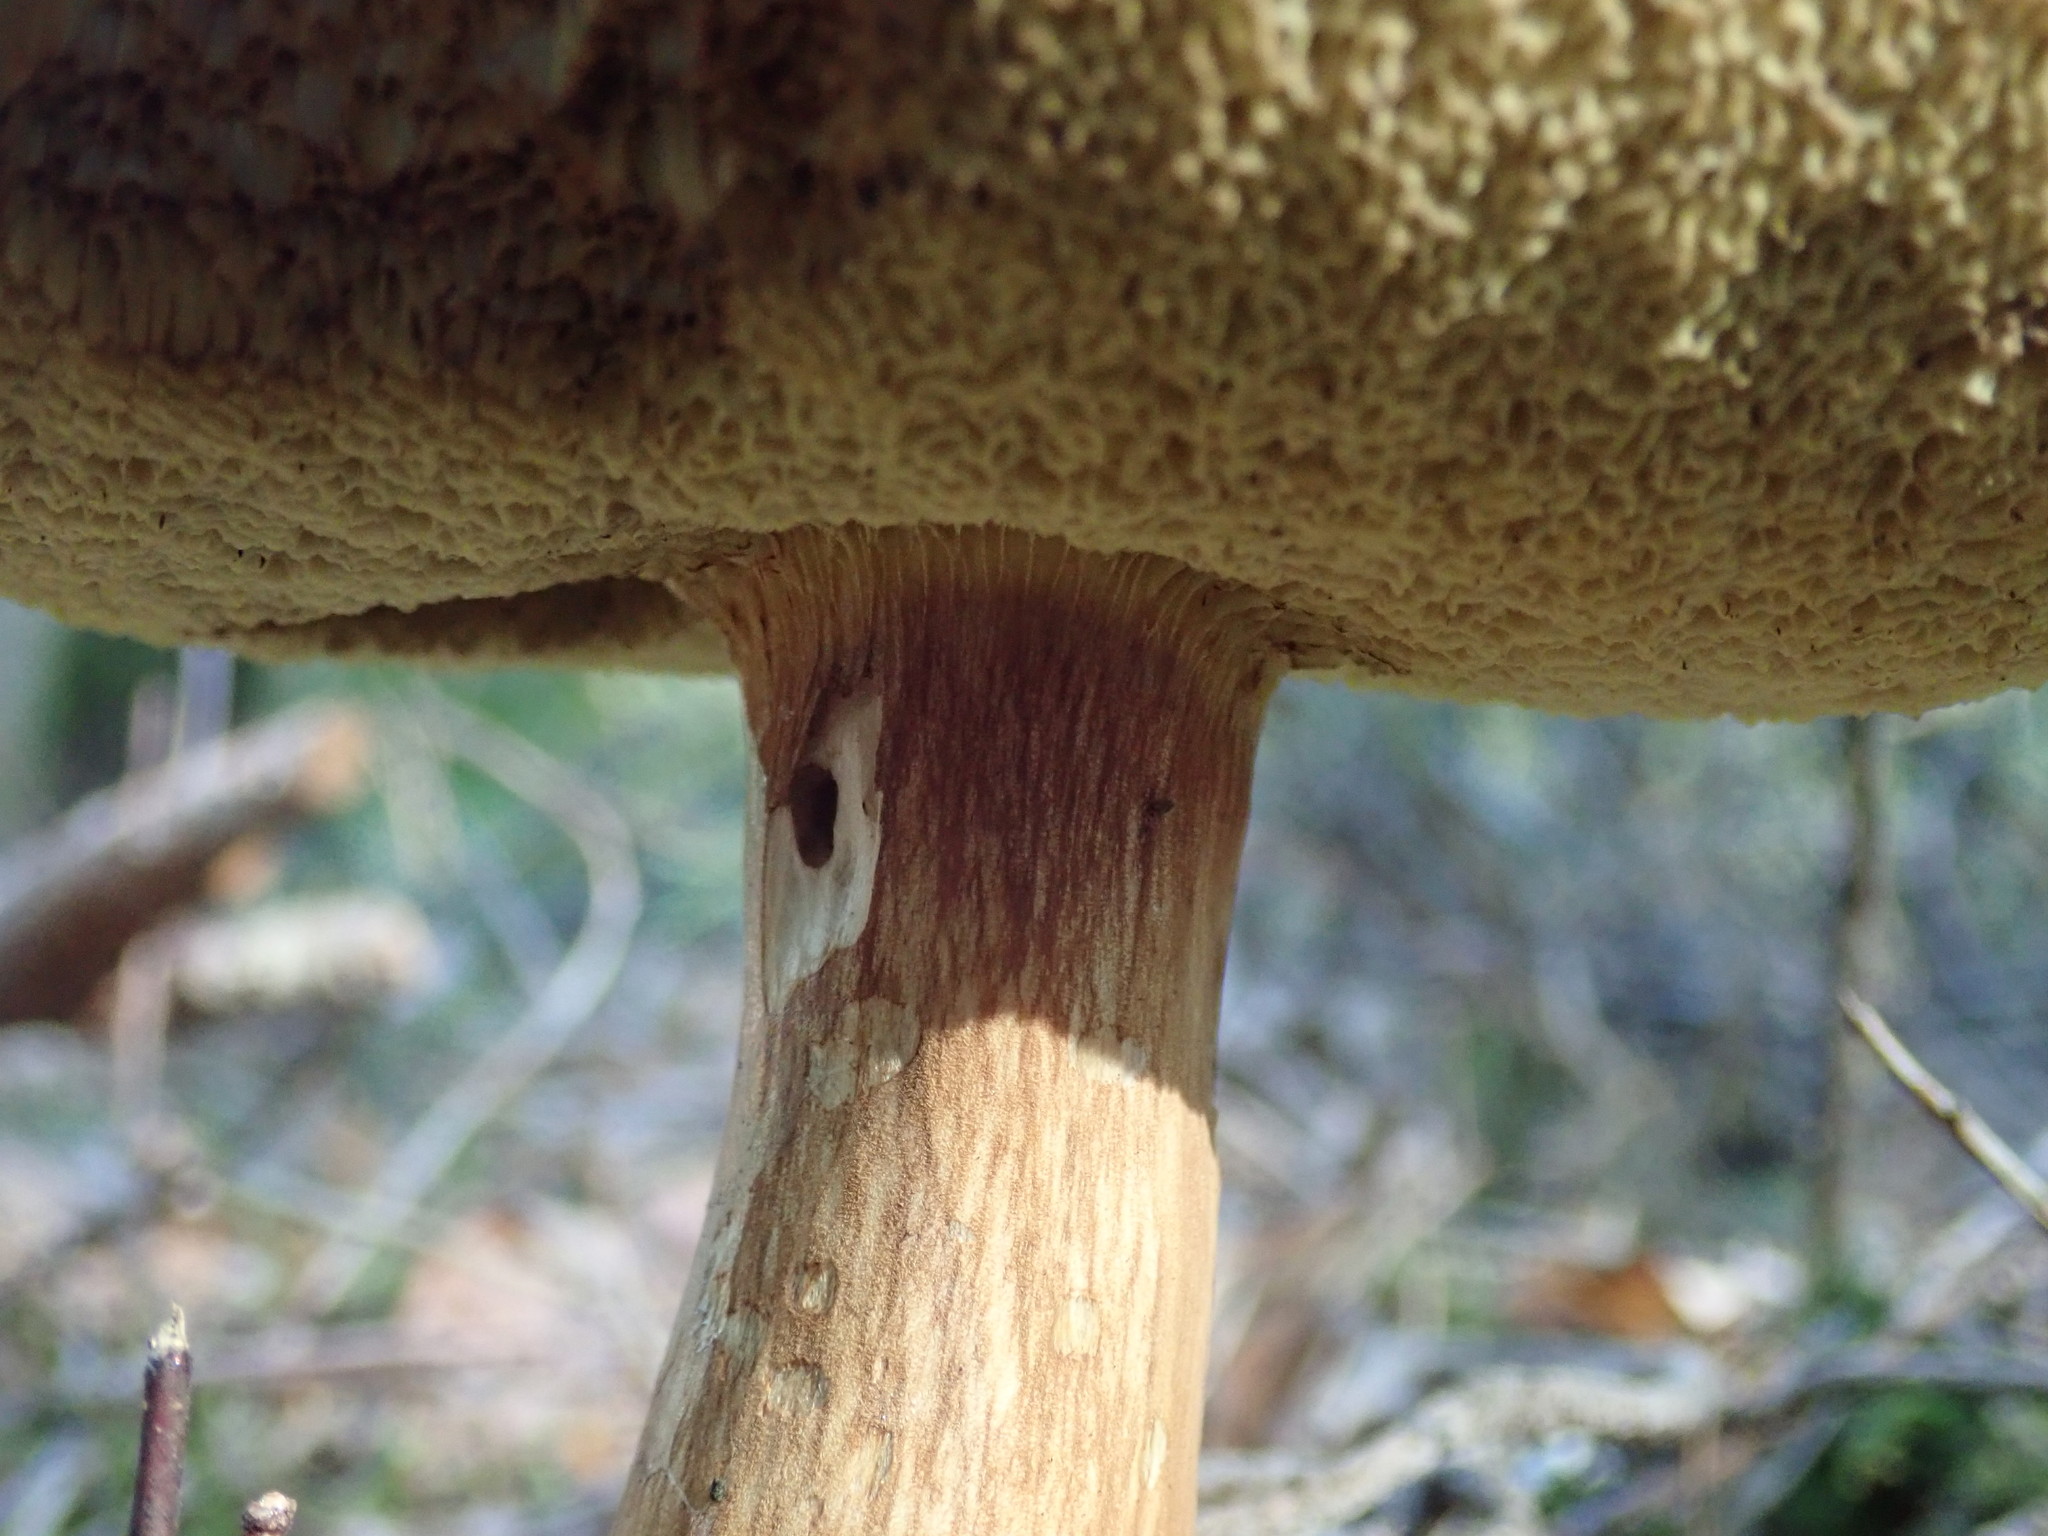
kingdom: Fungi
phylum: Basidiomycota
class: Agaricomycetes
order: Boletales
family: Boletaceae
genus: Imleria
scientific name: Imleria badia
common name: Bay bolete
